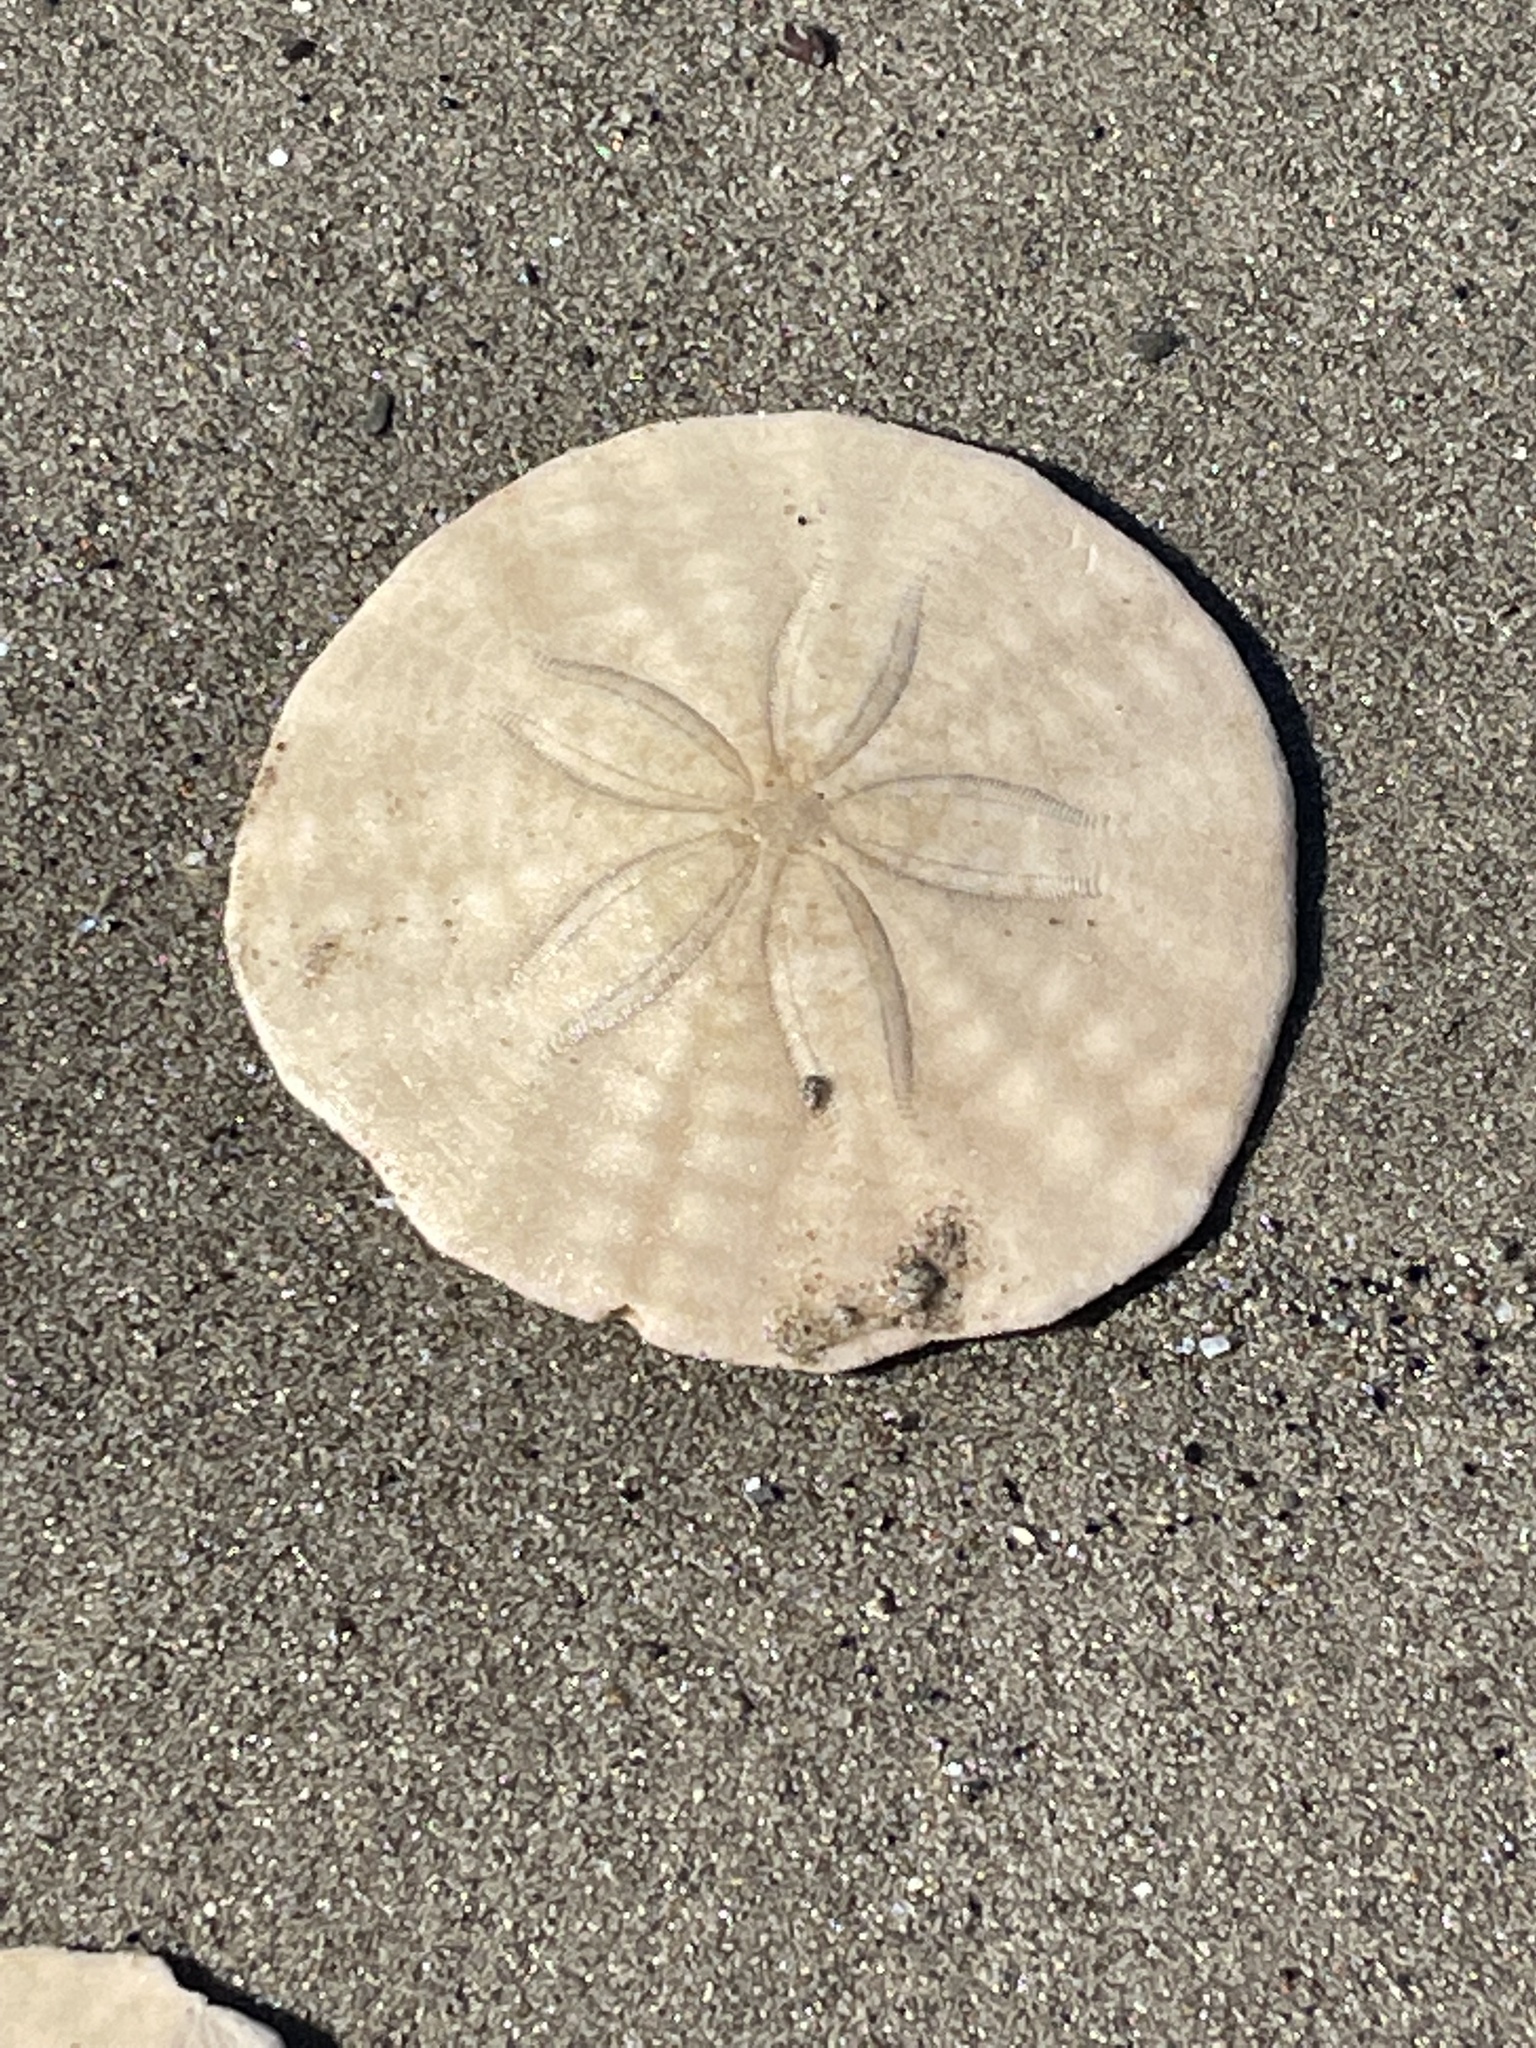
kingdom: Animalia
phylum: Echinodermata
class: Echinoidea
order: Echinolampadacea
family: Echinarachniidae
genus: Echinarachnius
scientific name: Echinarachnius parma
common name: Common sand dollar
